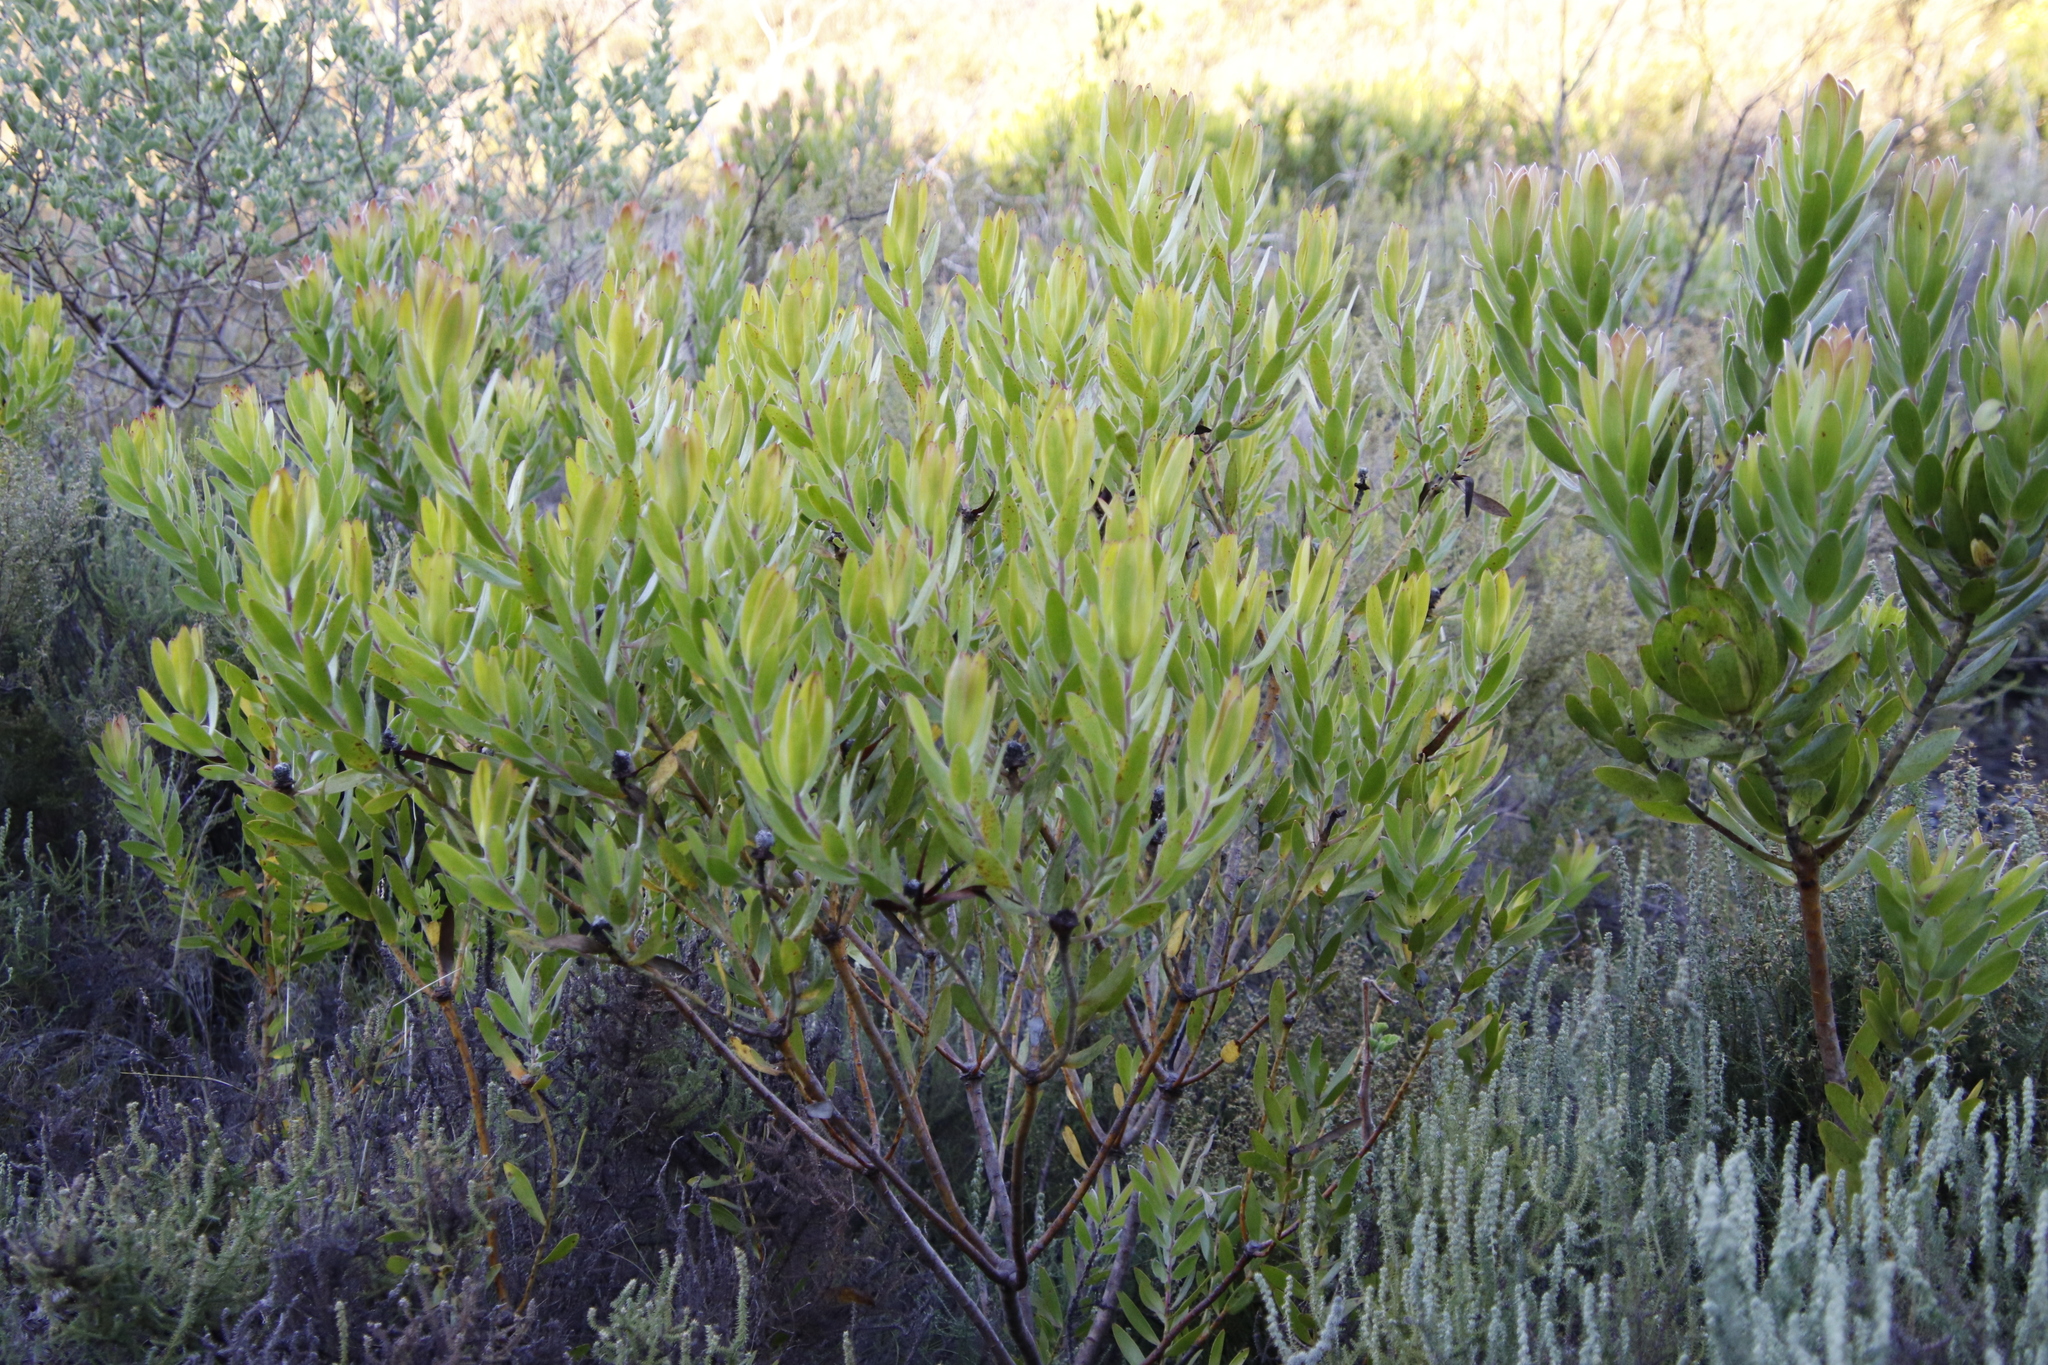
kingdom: Plantae
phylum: Tracheophyta
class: Magnoliopsida
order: Proteales
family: Proteaceae
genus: Leucadendron
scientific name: Leucadendron laureolum
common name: Golden sunshinebush
